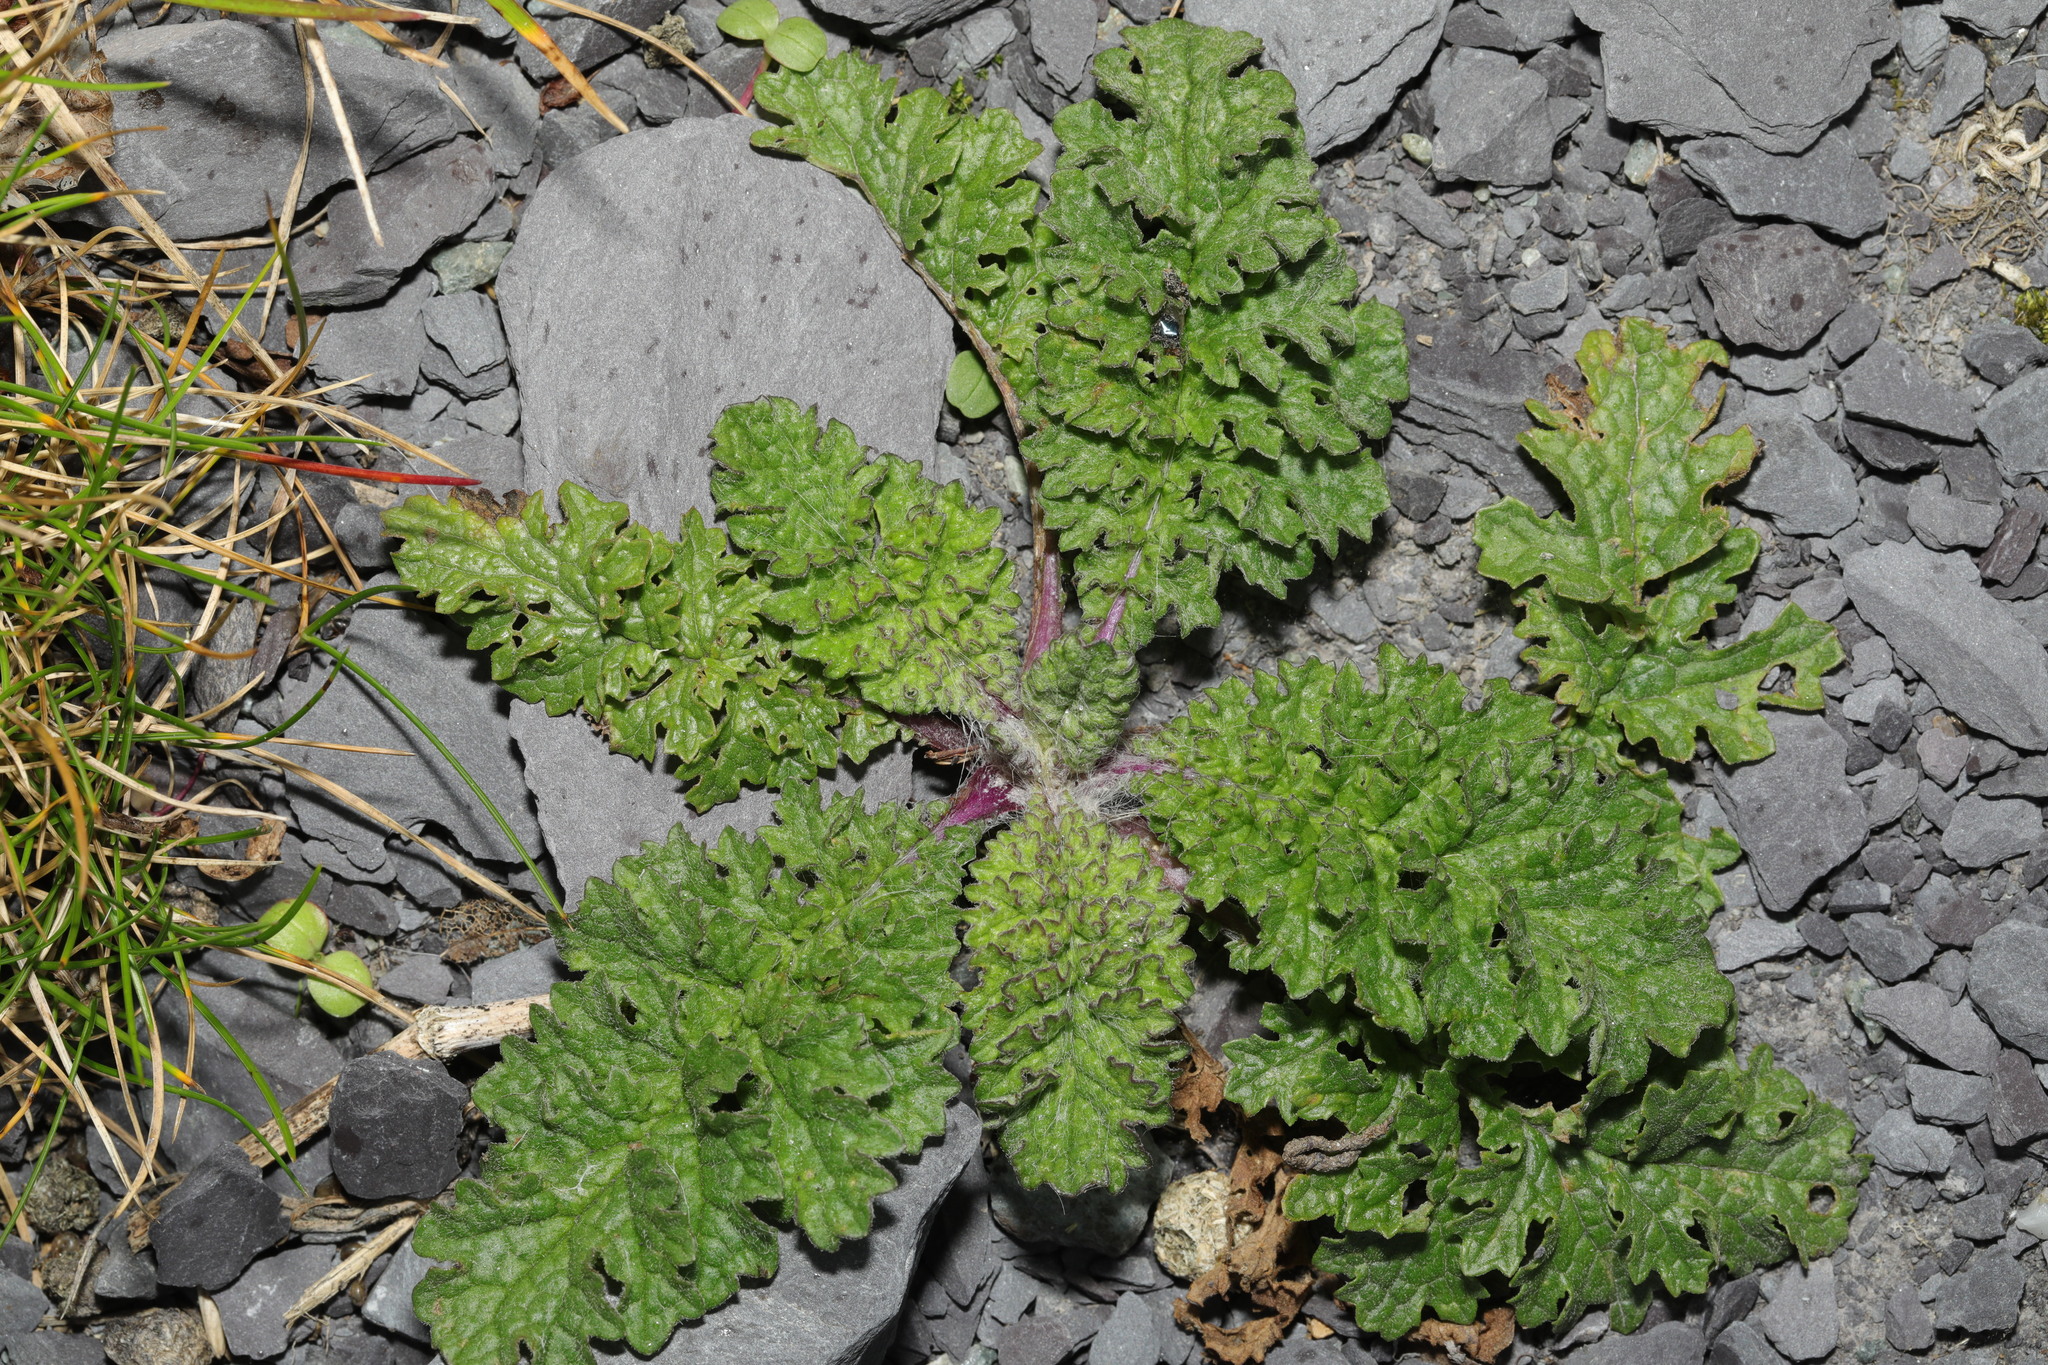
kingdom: Plantae
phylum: Tracheophyta
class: Magnoliopsida
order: Asterales
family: Asteraceae
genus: Jacobaea
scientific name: Jacobaea vulgaris
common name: Stinking willie
